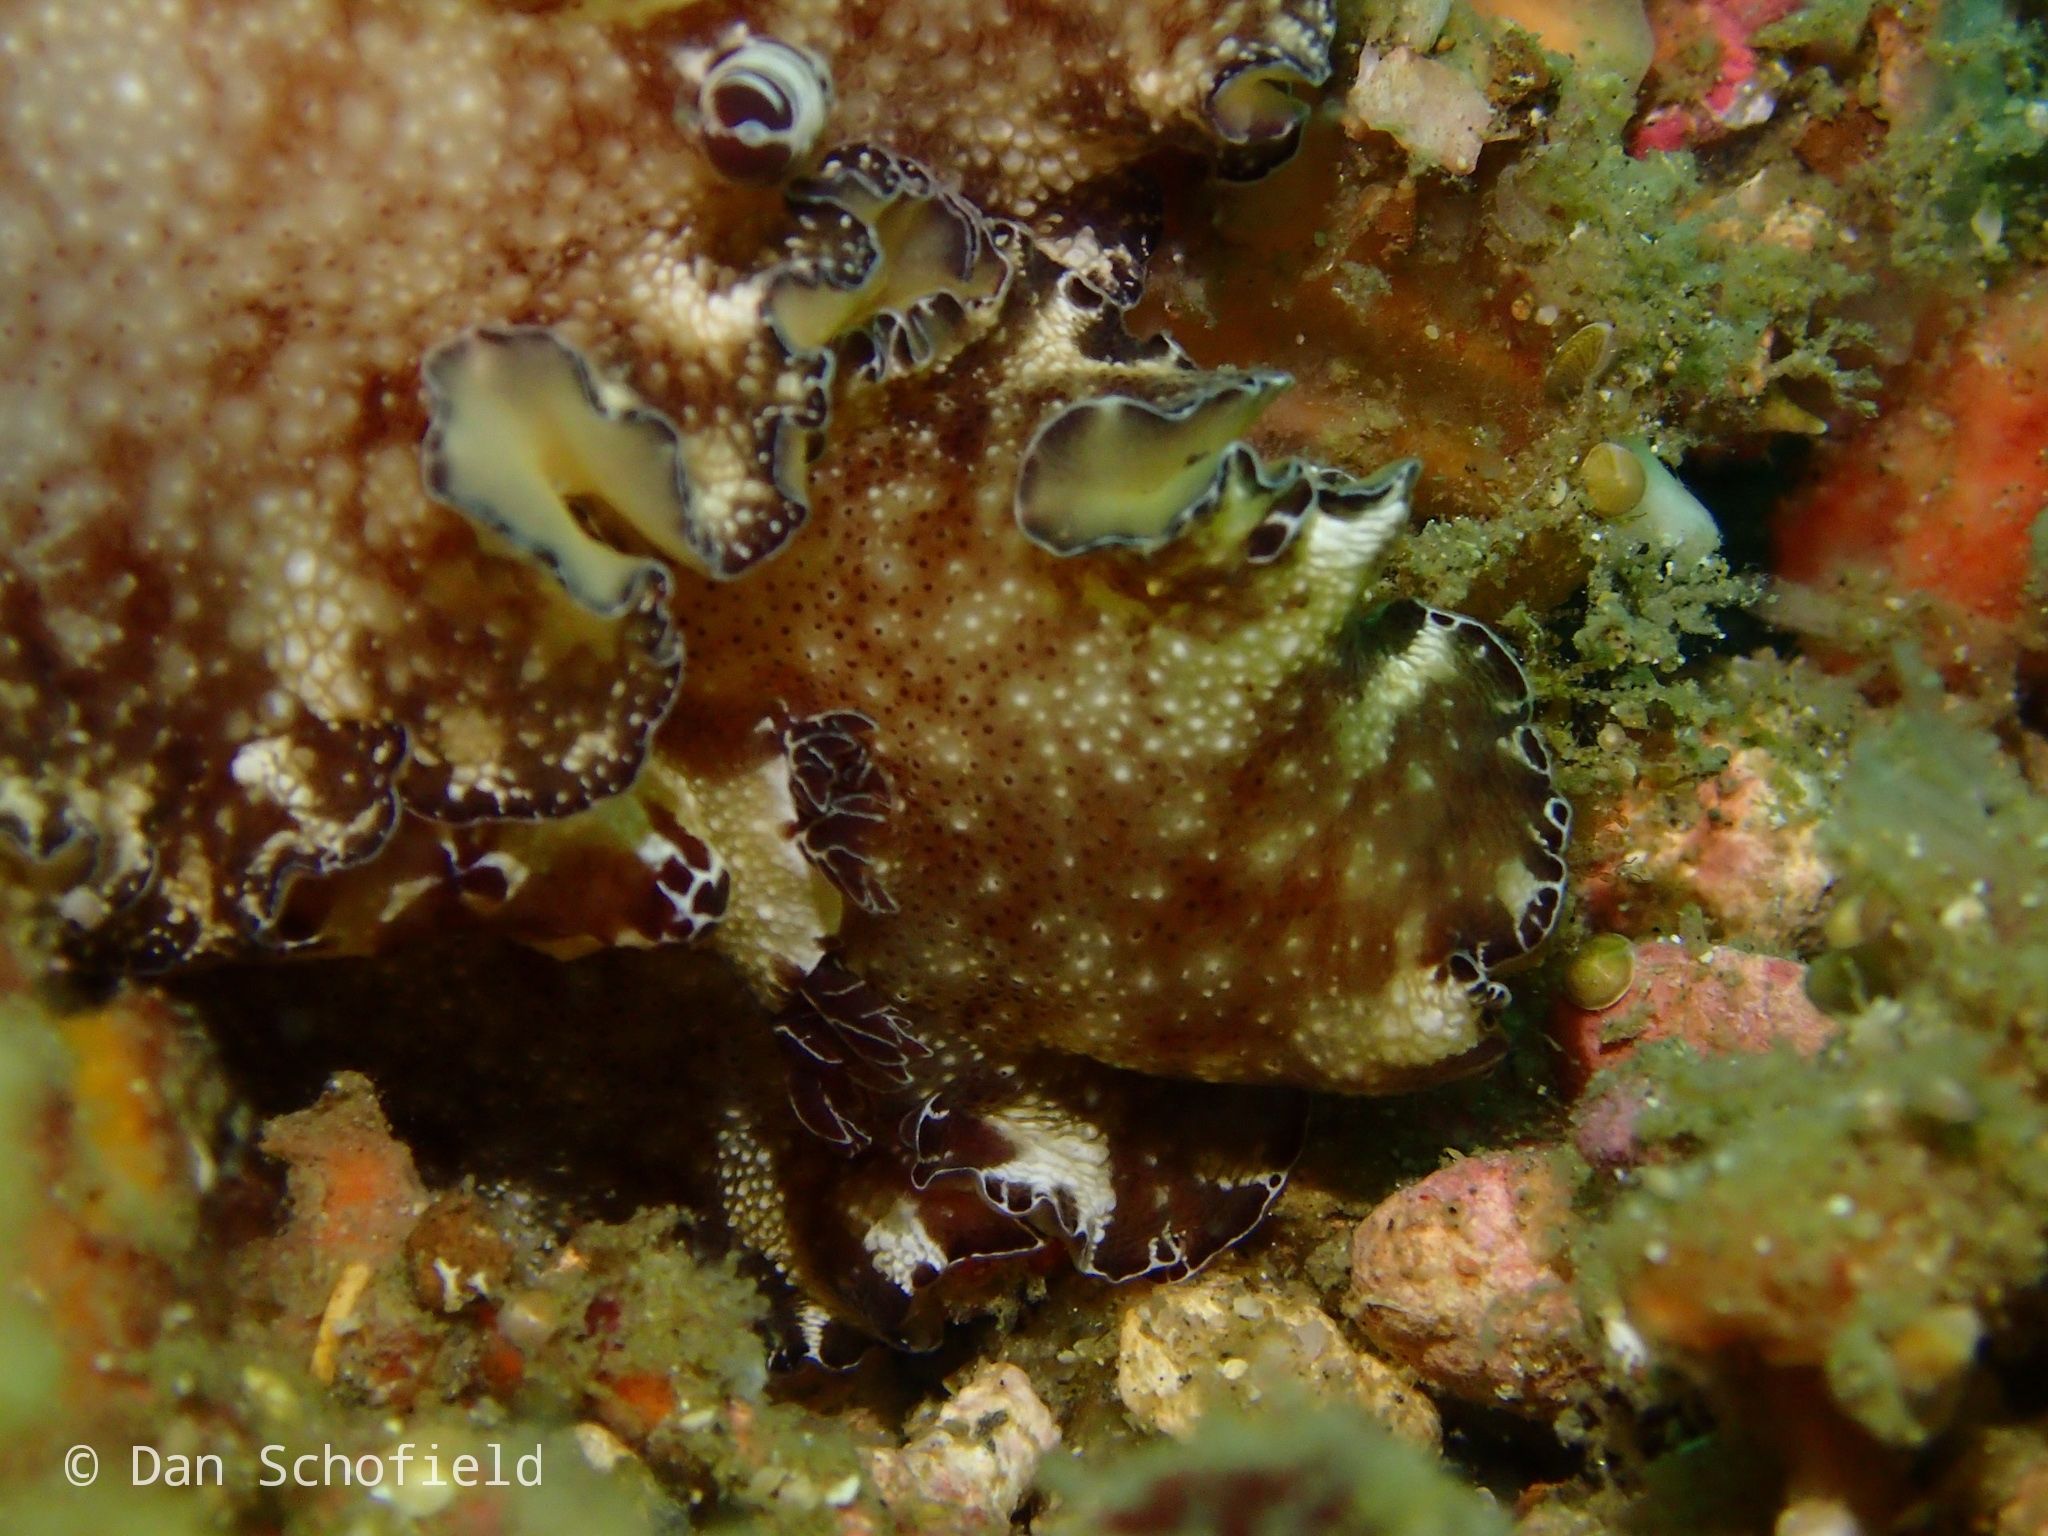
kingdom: Animalia
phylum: Mollusca
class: Gastropoda
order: Nudibranchia
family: Discodorididae
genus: Discodoris
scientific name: Discodoris boholiensis
